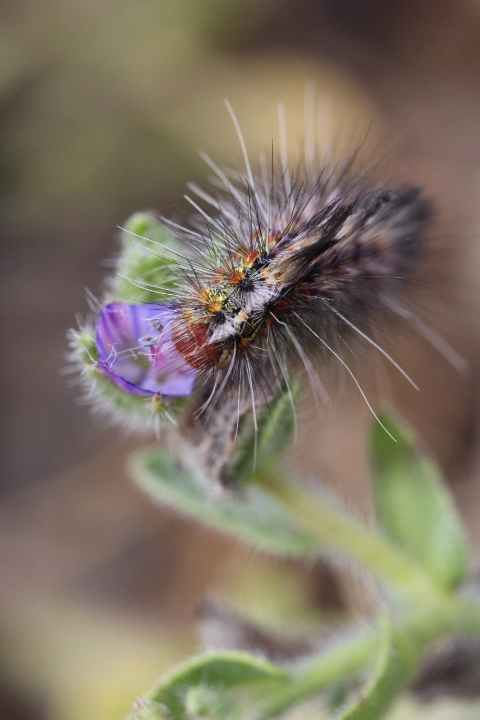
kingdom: Animalia
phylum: Arthropoda
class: Insecta
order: Lepidoptera
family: Erebidae
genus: Paralacydes
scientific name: Paralacydes vocula
